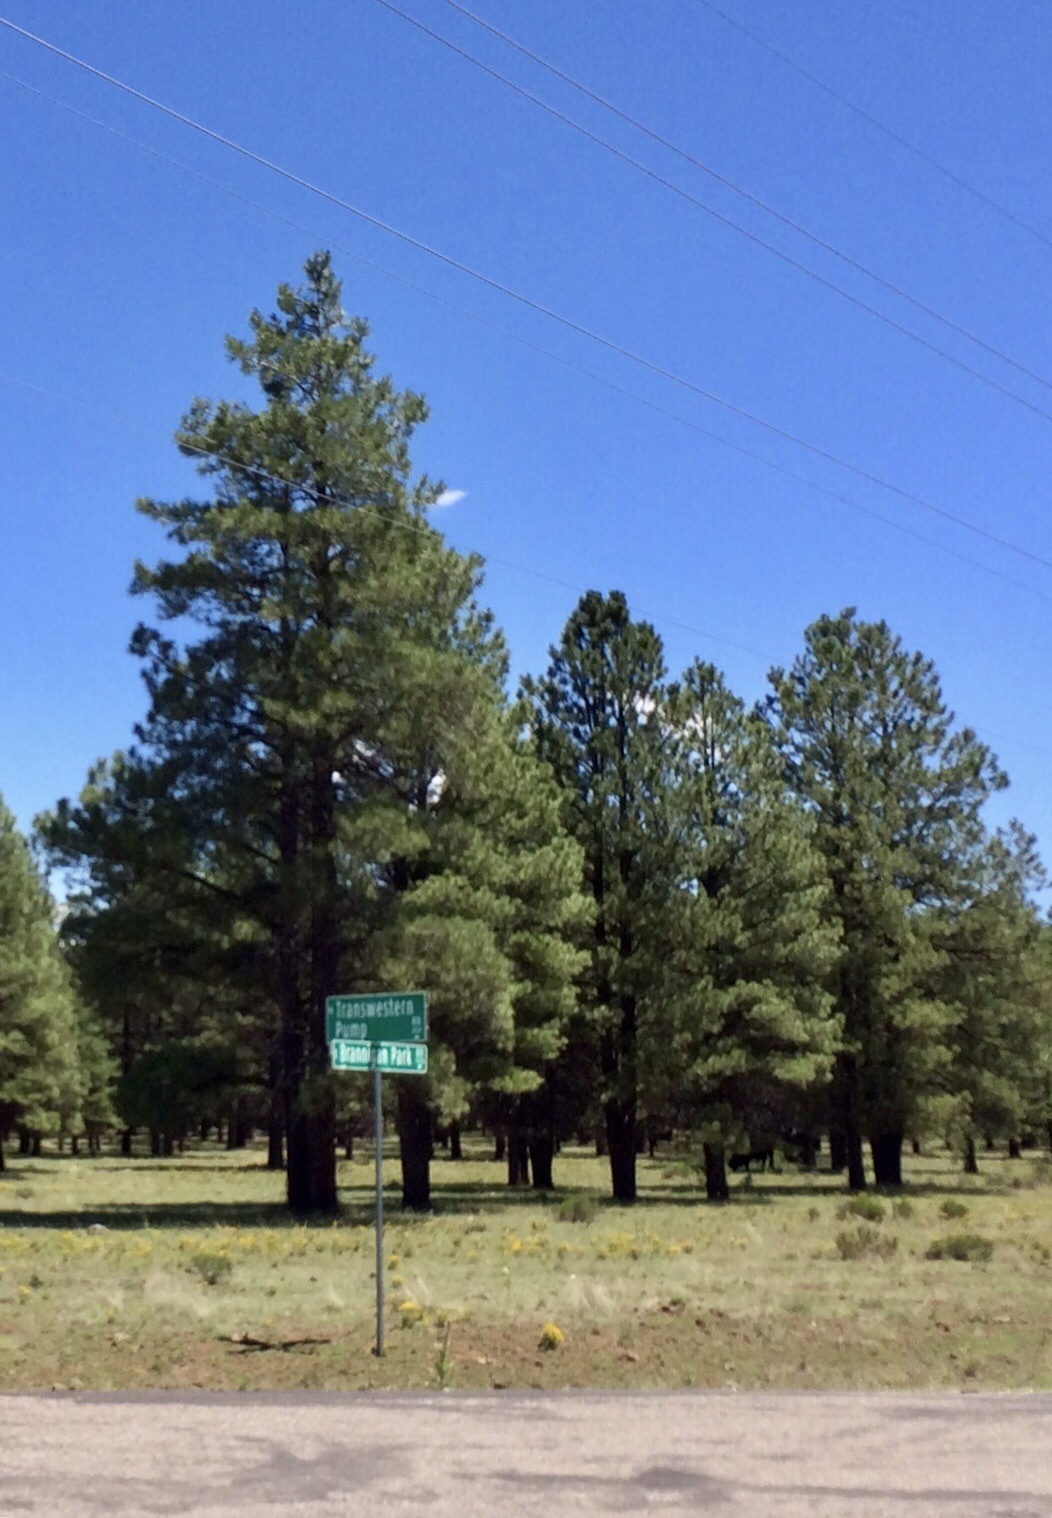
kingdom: Plantae
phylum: Tracheophyta
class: Pinopsida
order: Pinales
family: Pinaceae
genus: Pinus
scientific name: Pinus ponderosa
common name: Western yellow-pine
